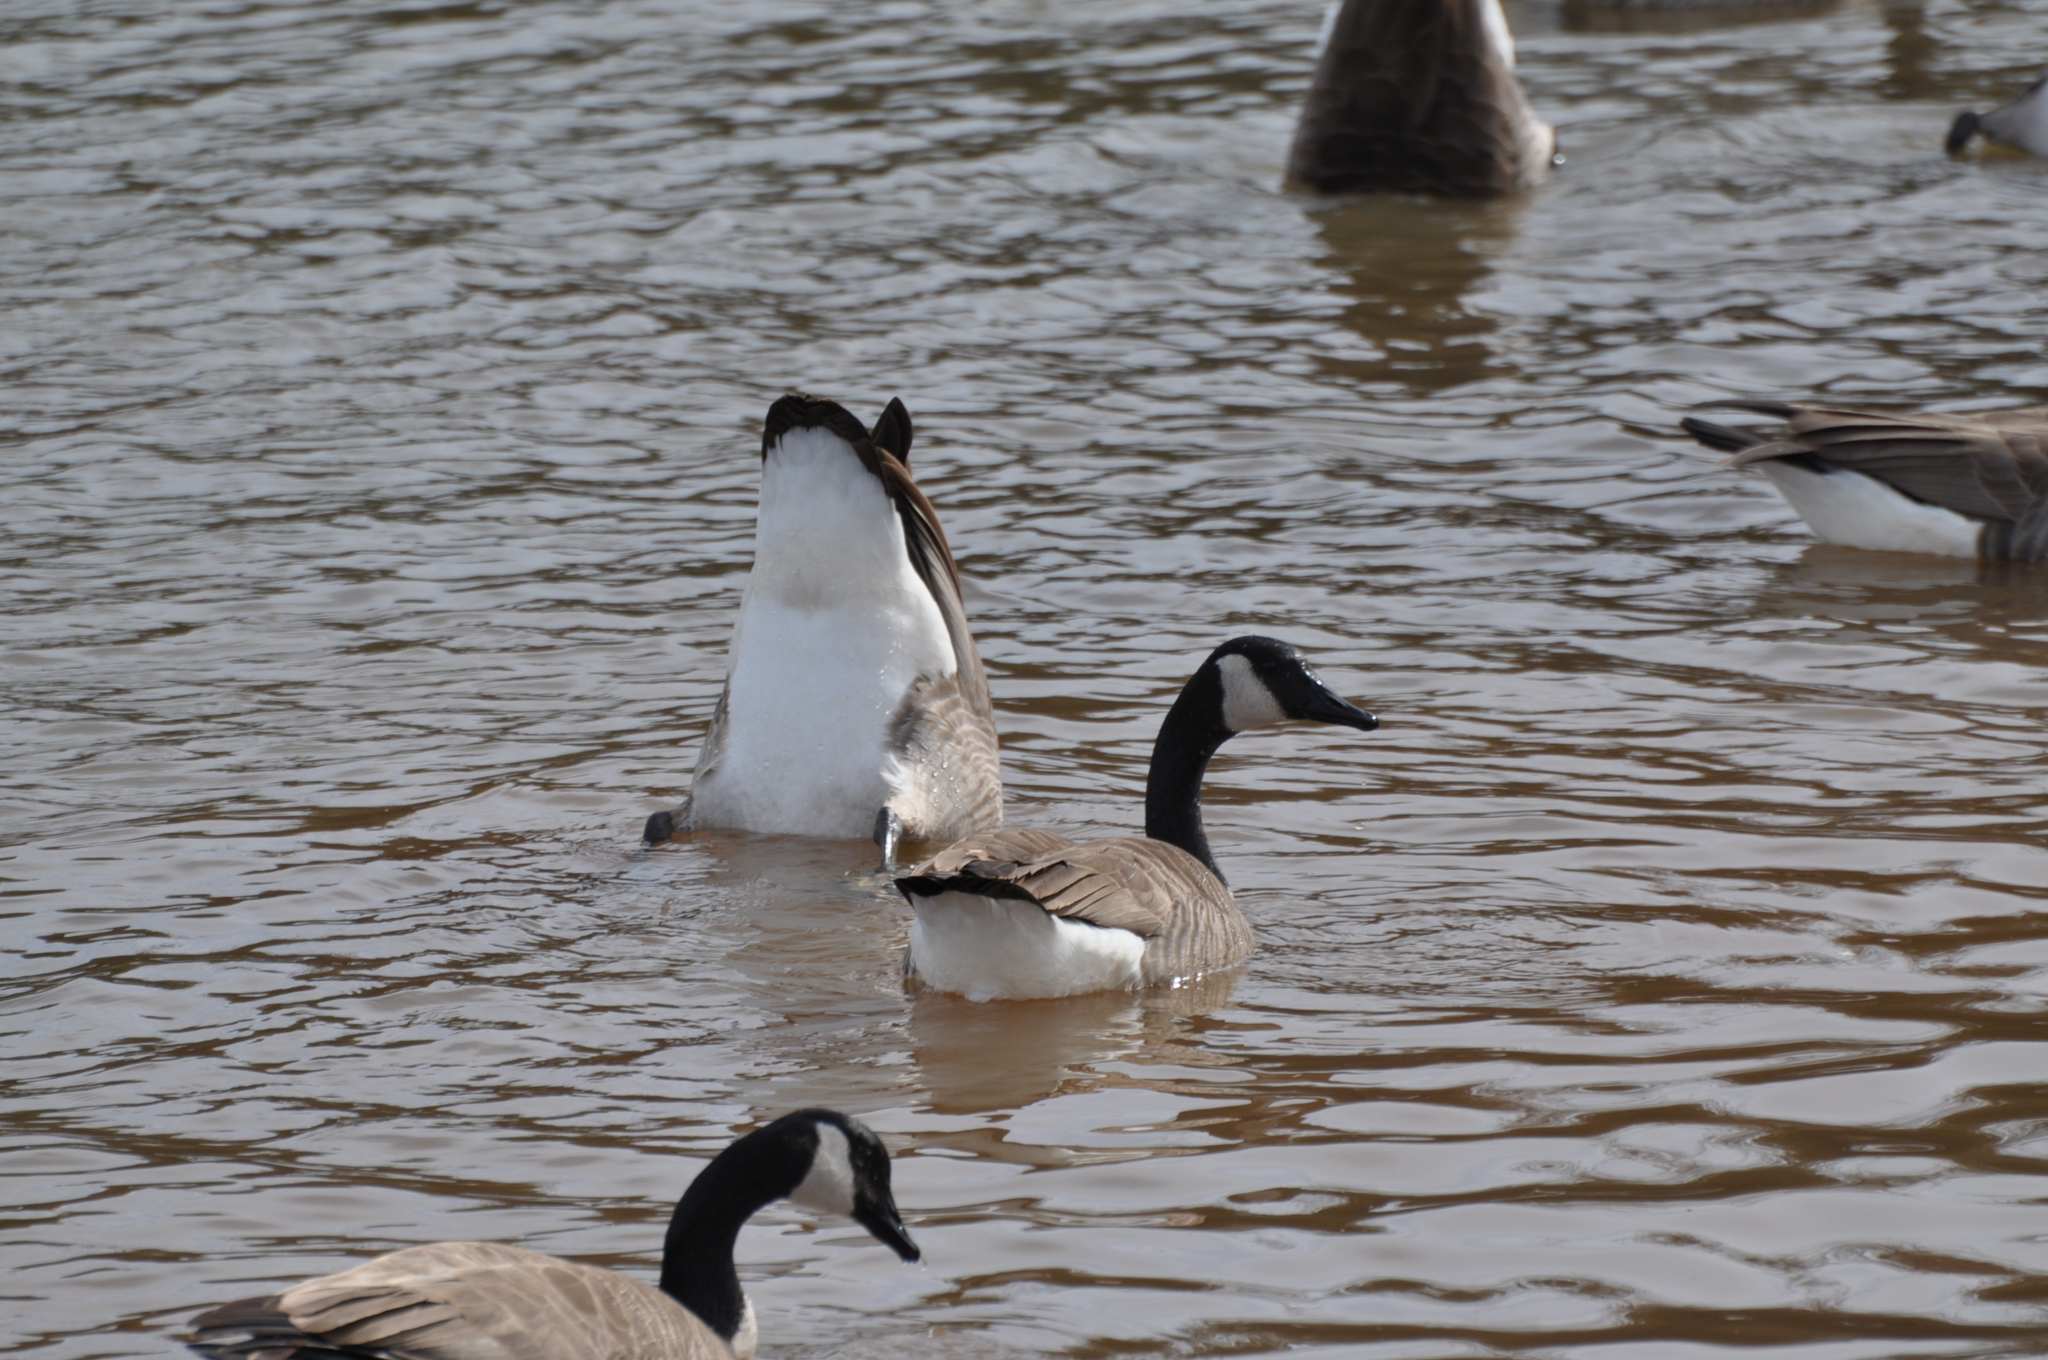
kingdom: Animalia
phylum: Chordata
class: Aves
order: Anseriformes
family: Anatidae
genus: Branta
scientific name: Branta canadensis
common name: Canada goose
